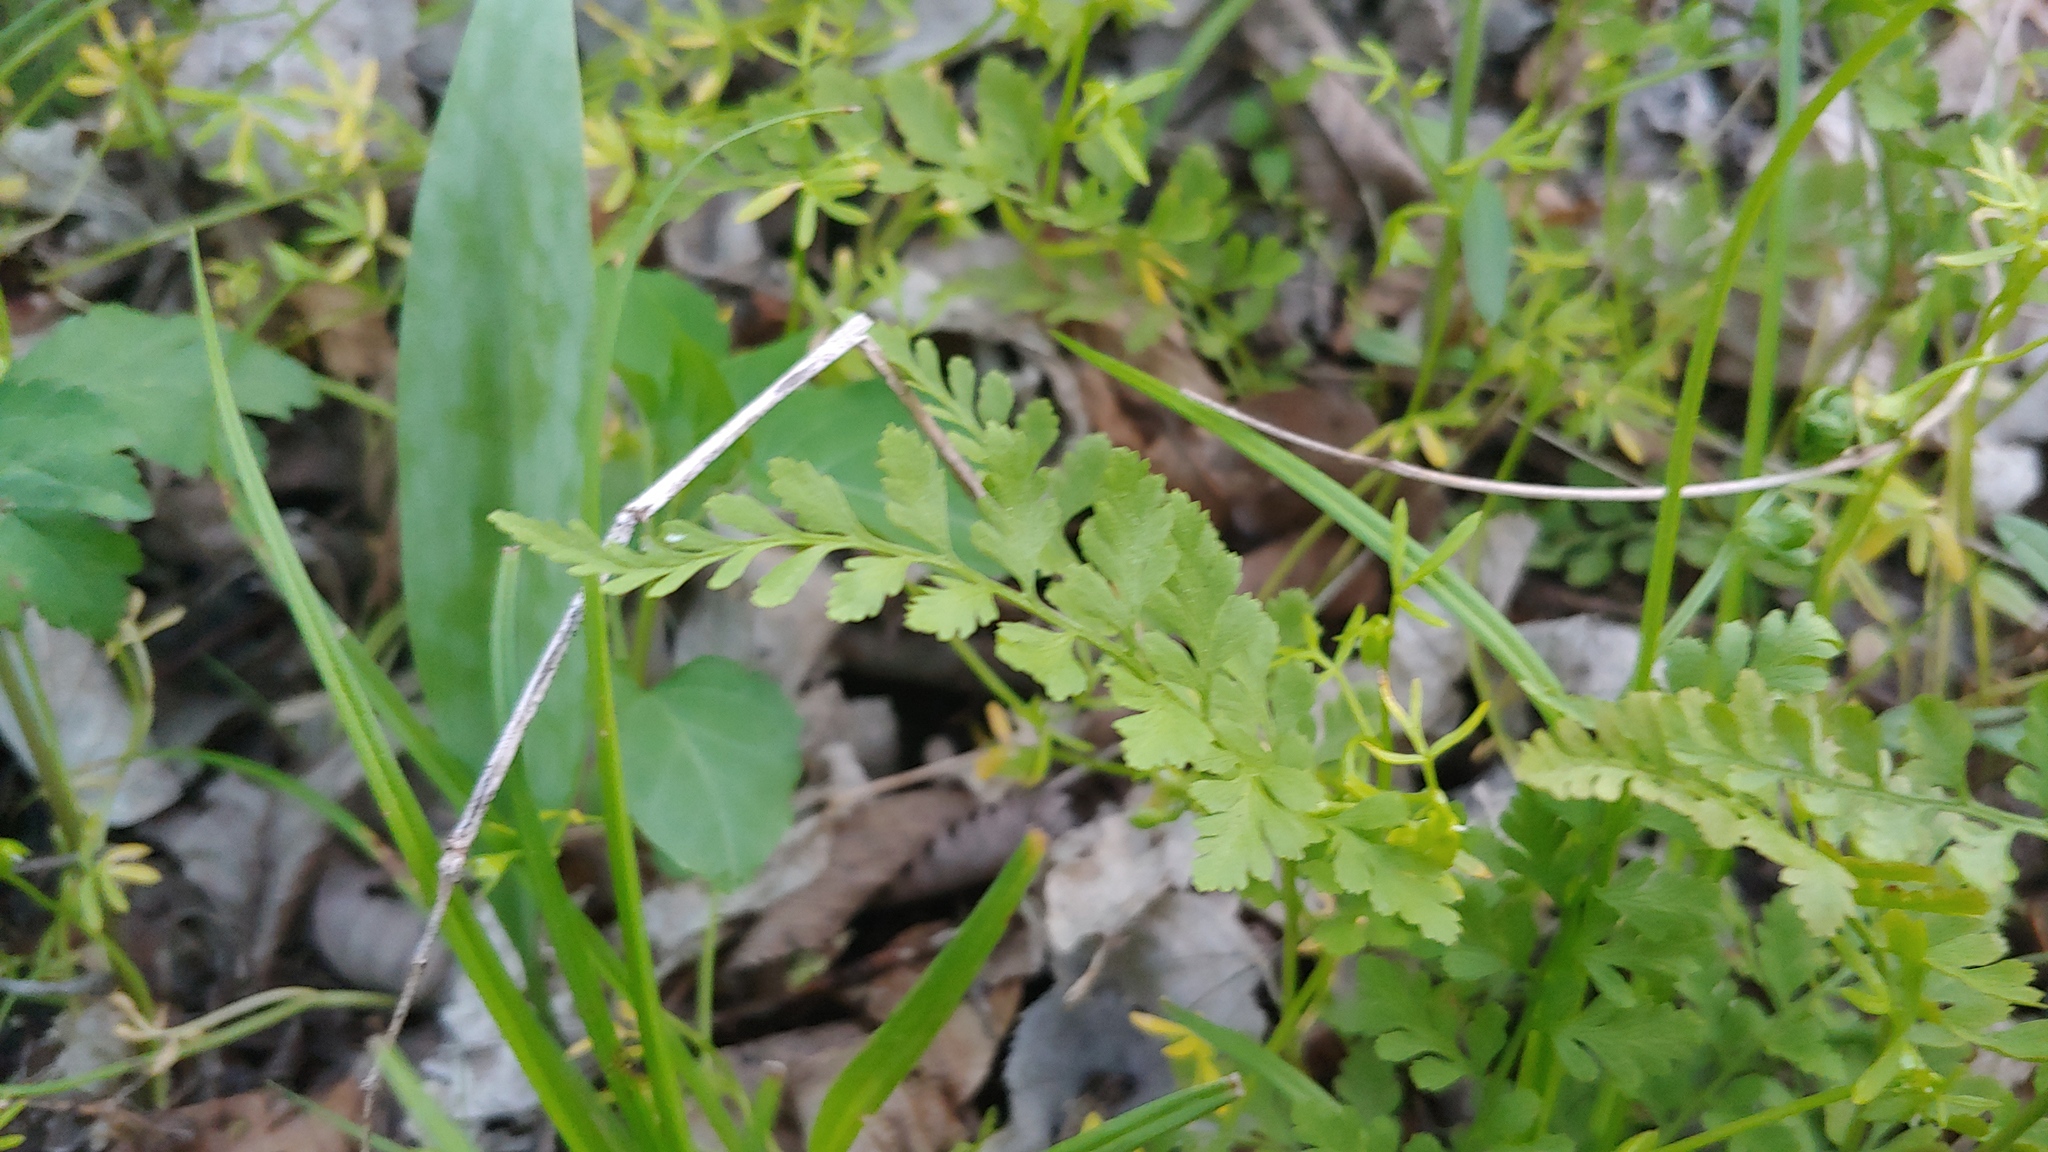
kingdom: Plantae
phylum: Tracheophyta
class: Polypodiopsida
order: Polypodiales
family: Cystopteridaceae
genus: Cystopteris
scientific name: Cystopteris protrusa
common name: Lowland brittle fern
